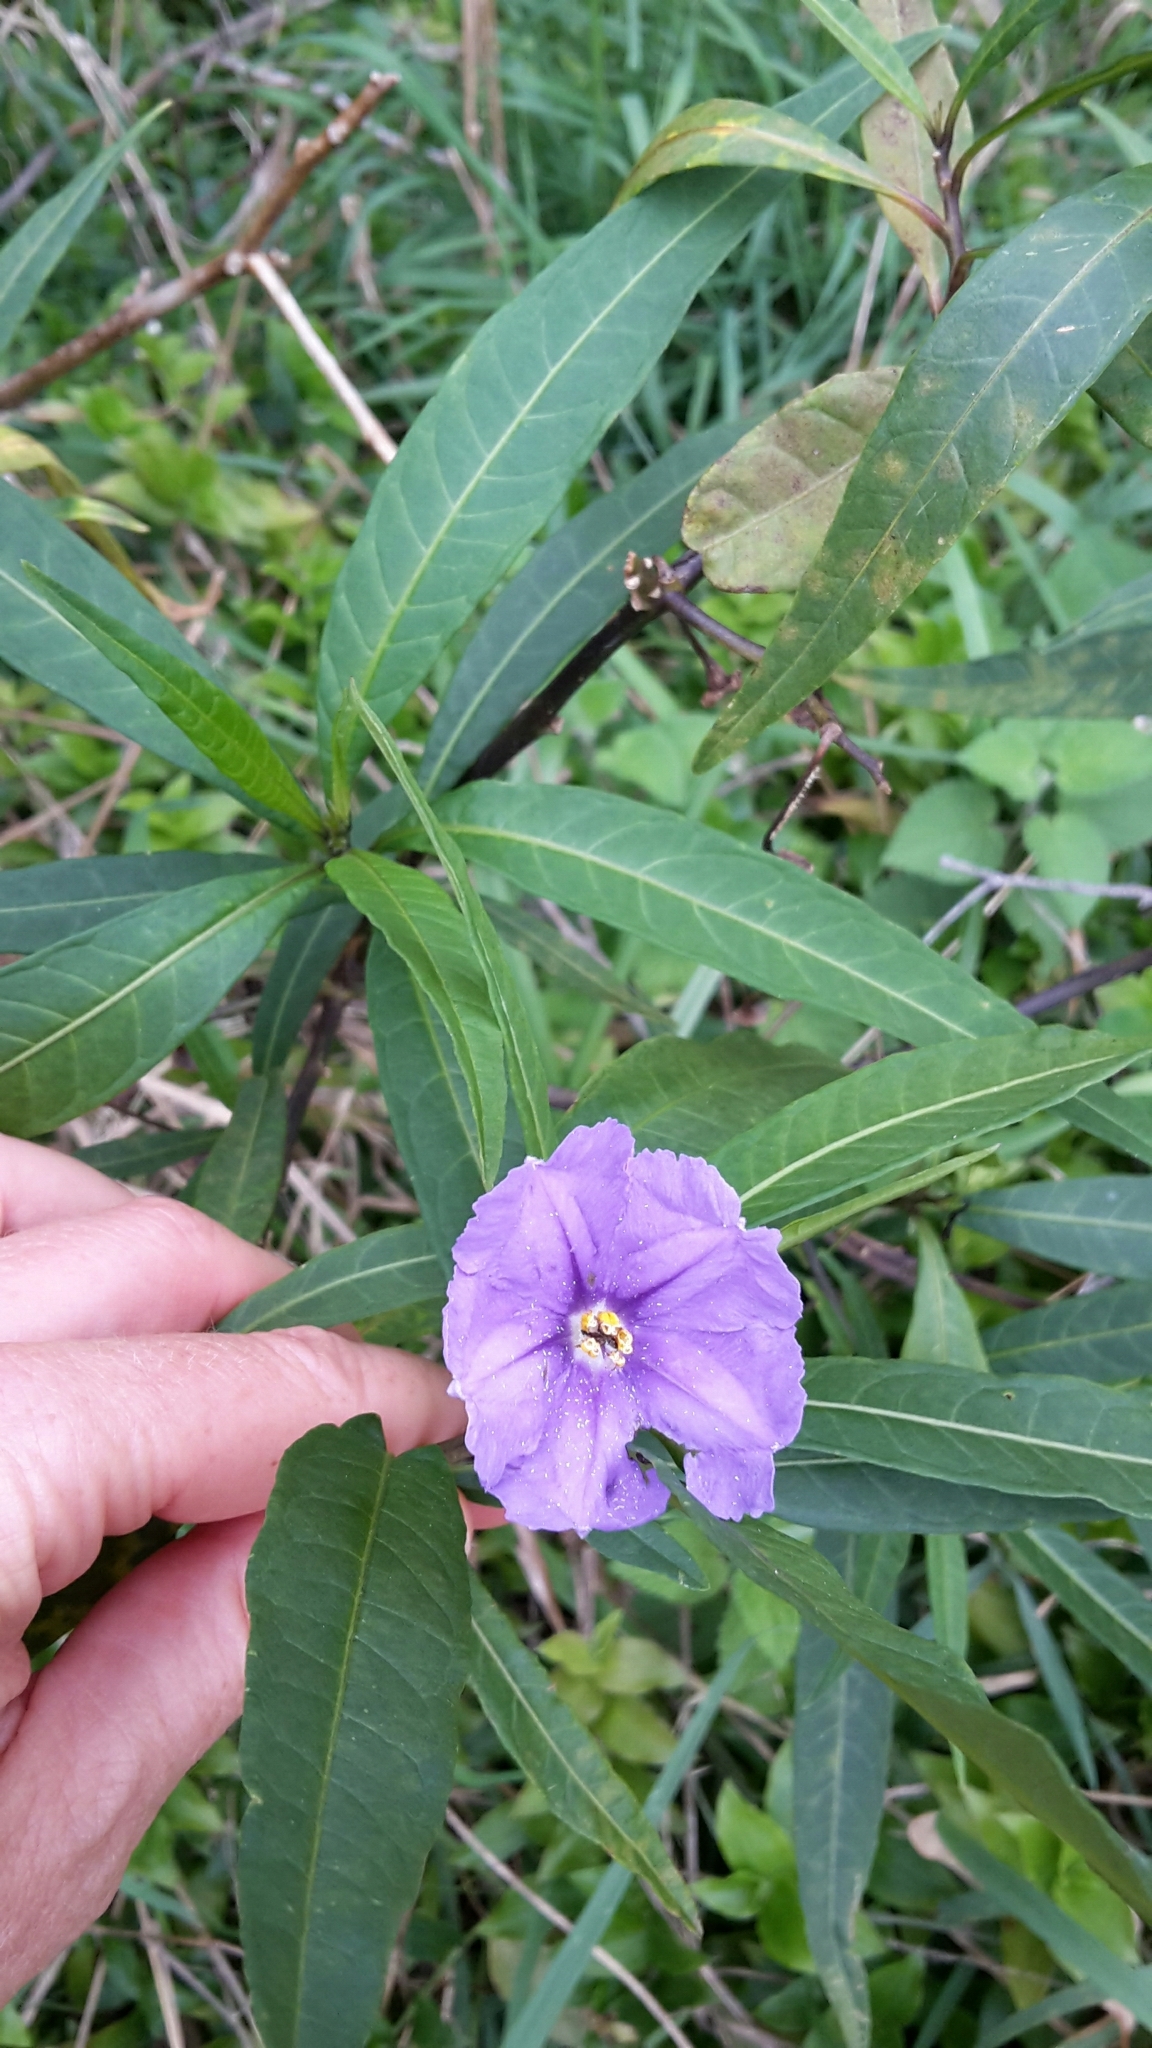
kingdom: Plantae
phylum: Tracheophyta
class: Magnoliopsida
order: Solanales
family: Solanaceae
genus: Solanum
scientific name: Solanum laciniatum
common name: Kangaroo-apple
